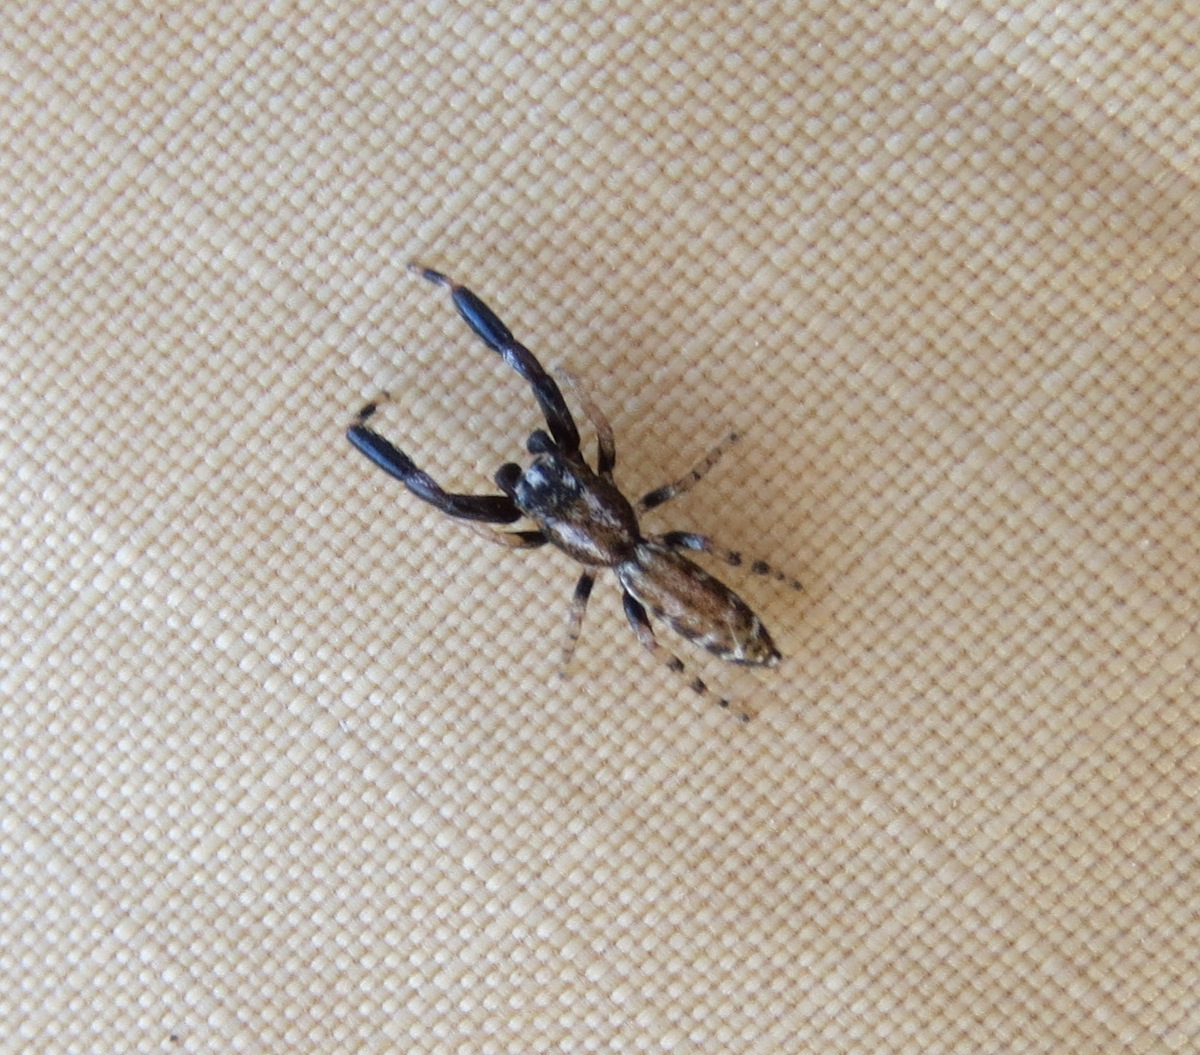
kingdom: Animalia
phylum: Arthropoda
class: Arachnida
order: Araneae
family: Salticidae
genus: Marpissa
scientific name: Marpissa nivoyi
